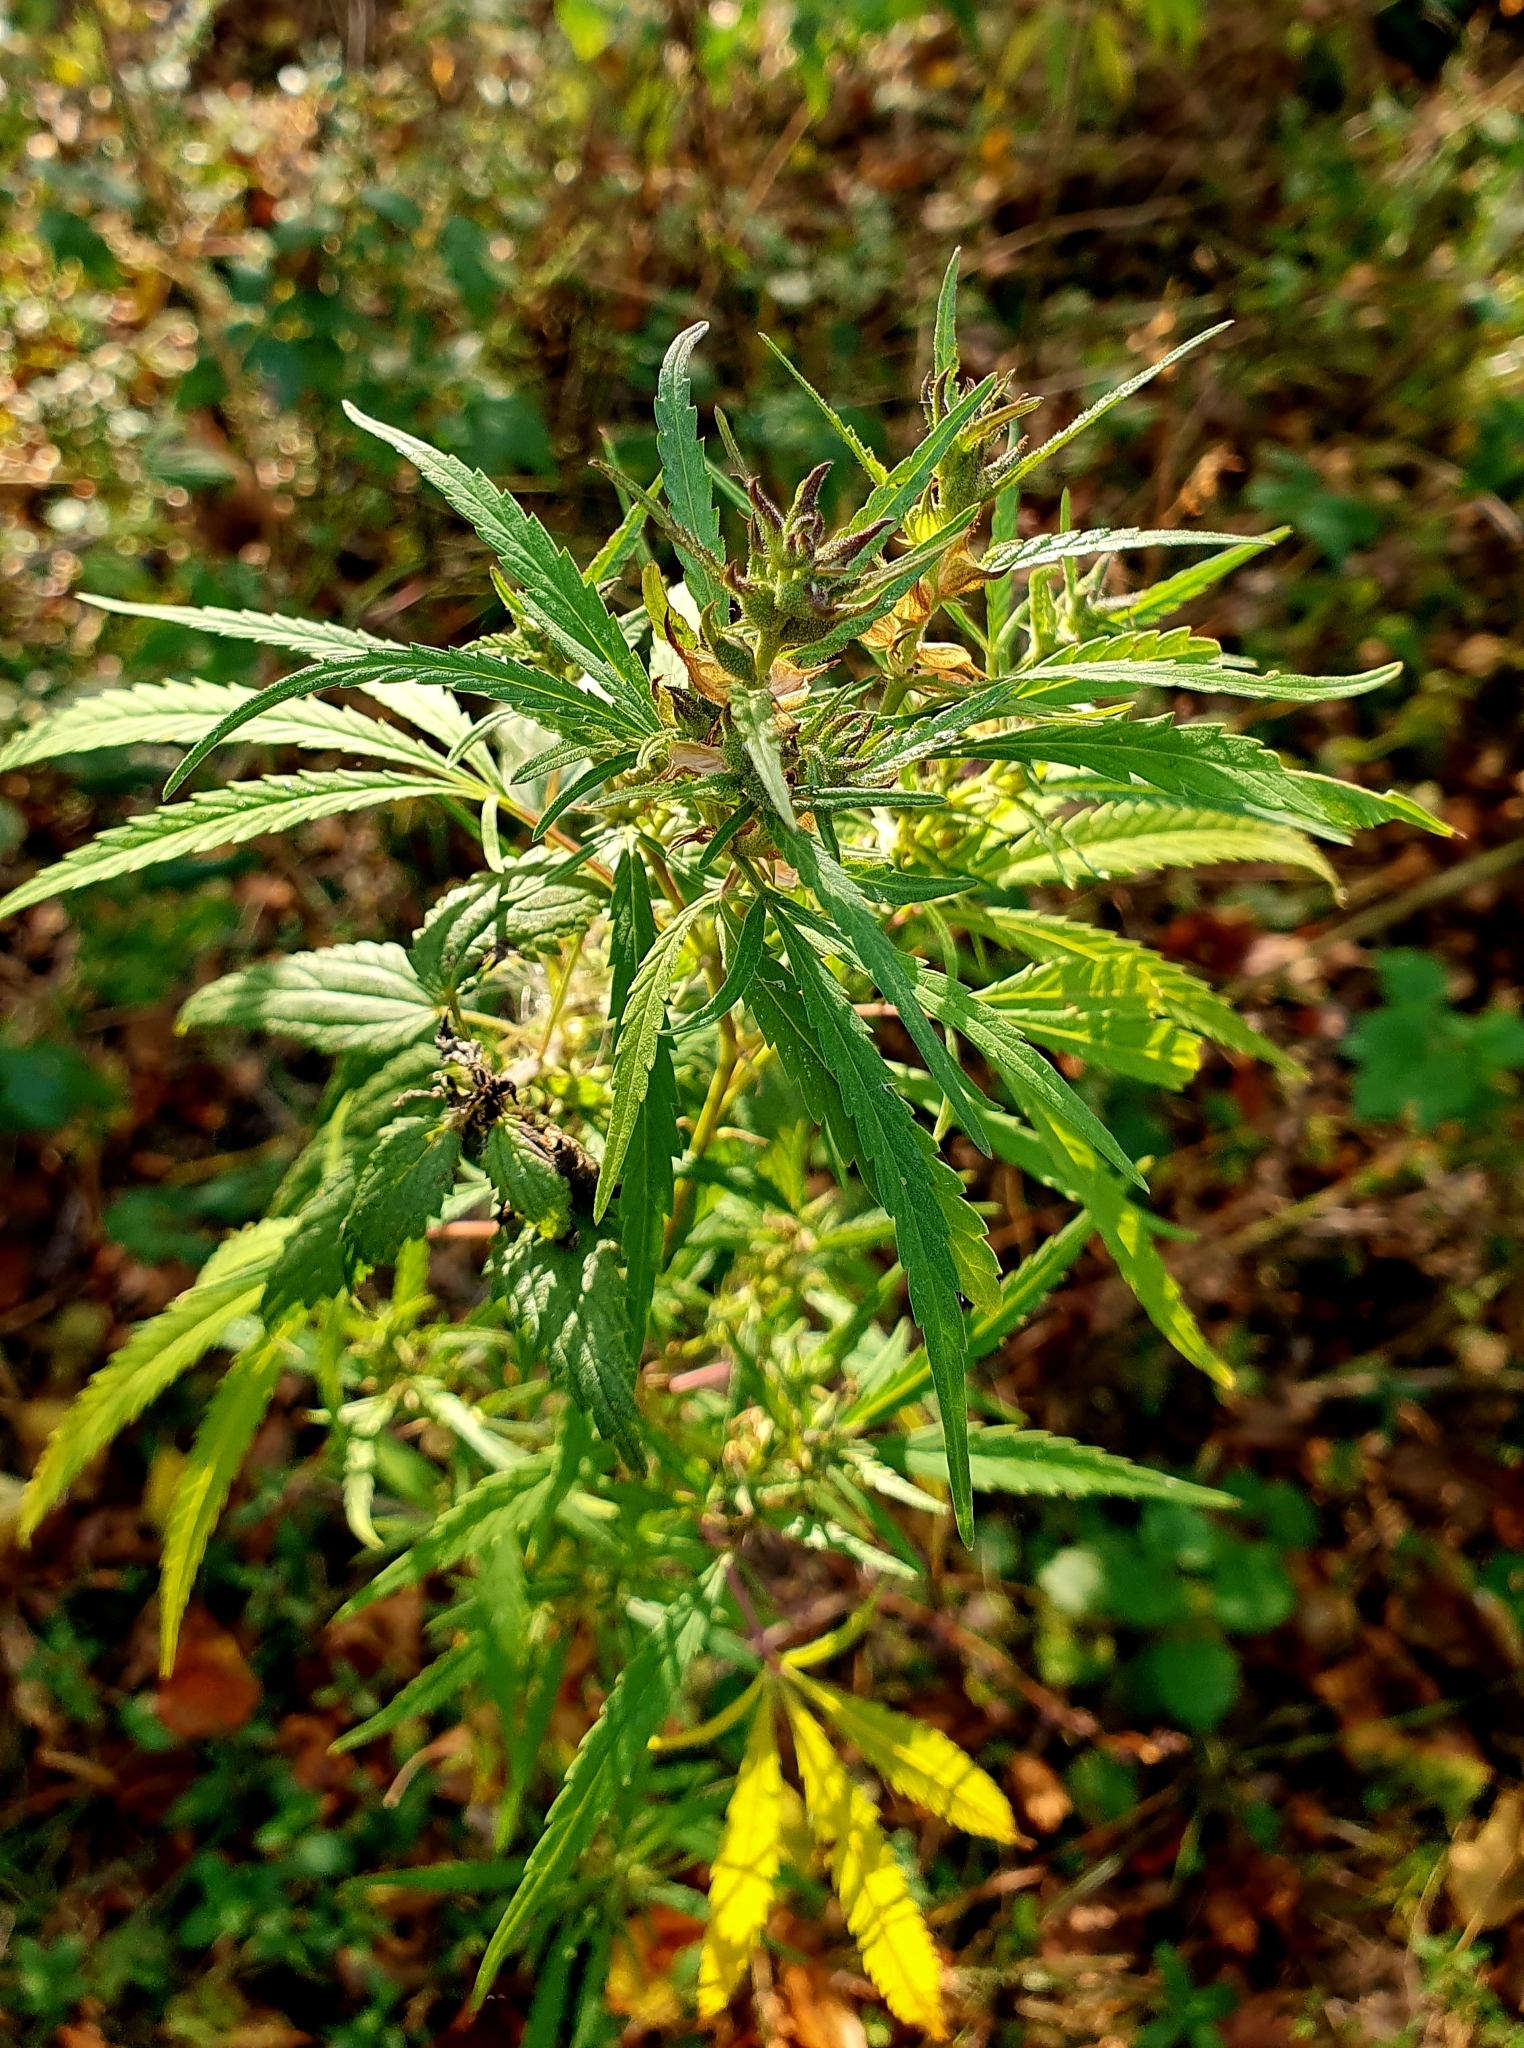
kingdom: Plantae
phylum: Tracheophyta
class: Magnoliopsida
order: Rosales
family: Cannabaceae
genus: Cannabis
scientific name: Cannabis sativa
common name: Hemp
